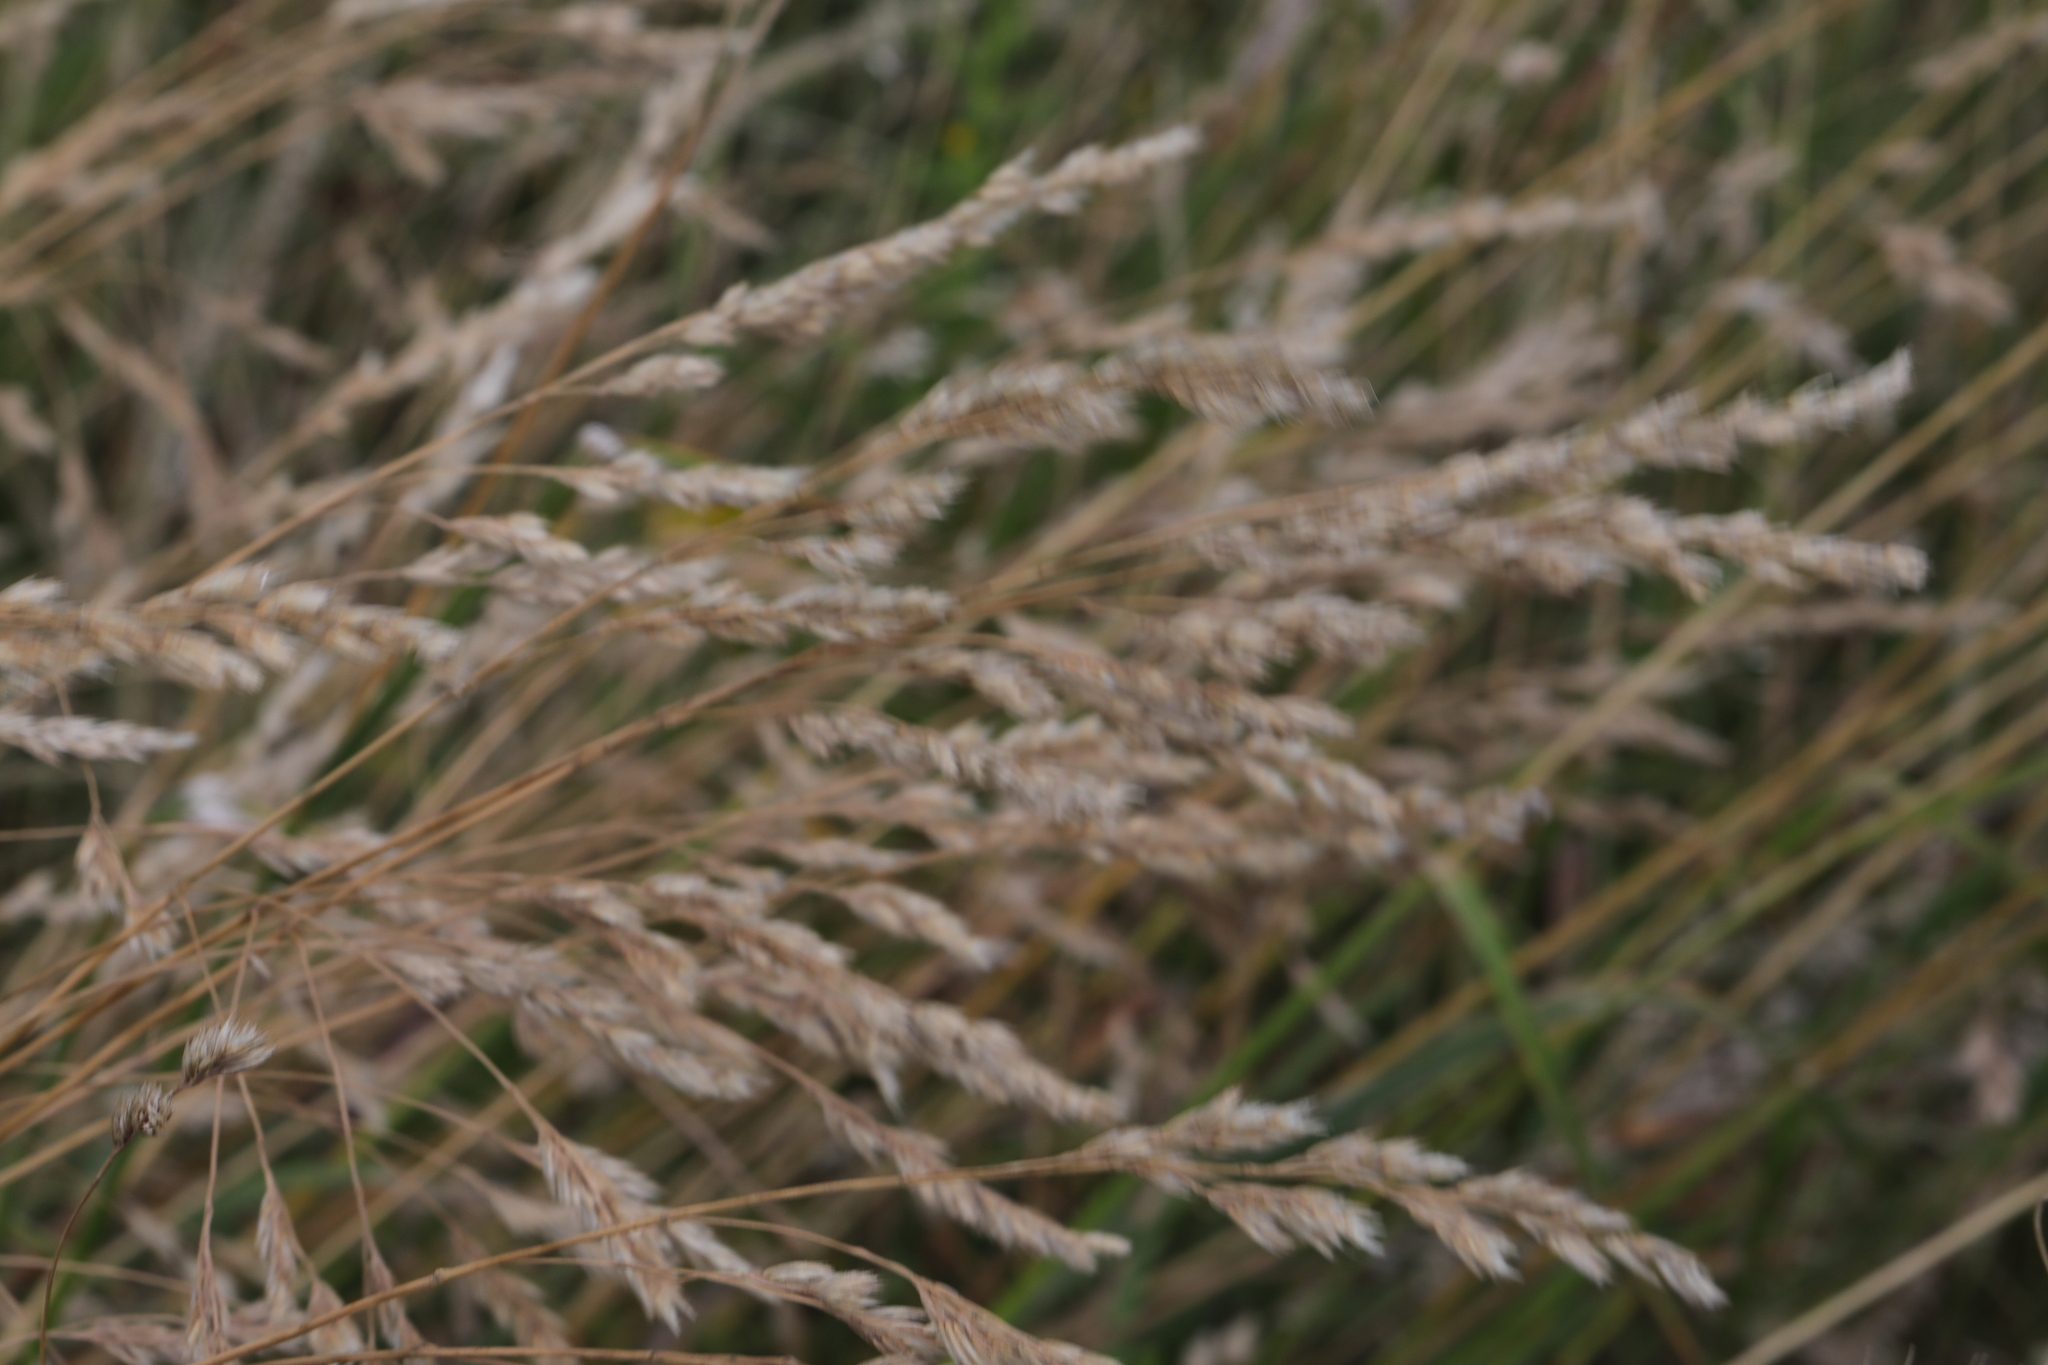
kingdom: Plantae
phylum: Tracheophyta
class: Liliopsida
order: Poales
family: Poaceae
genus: Dactylis
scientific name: Dactylis glomerata
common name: Orchardgrass
